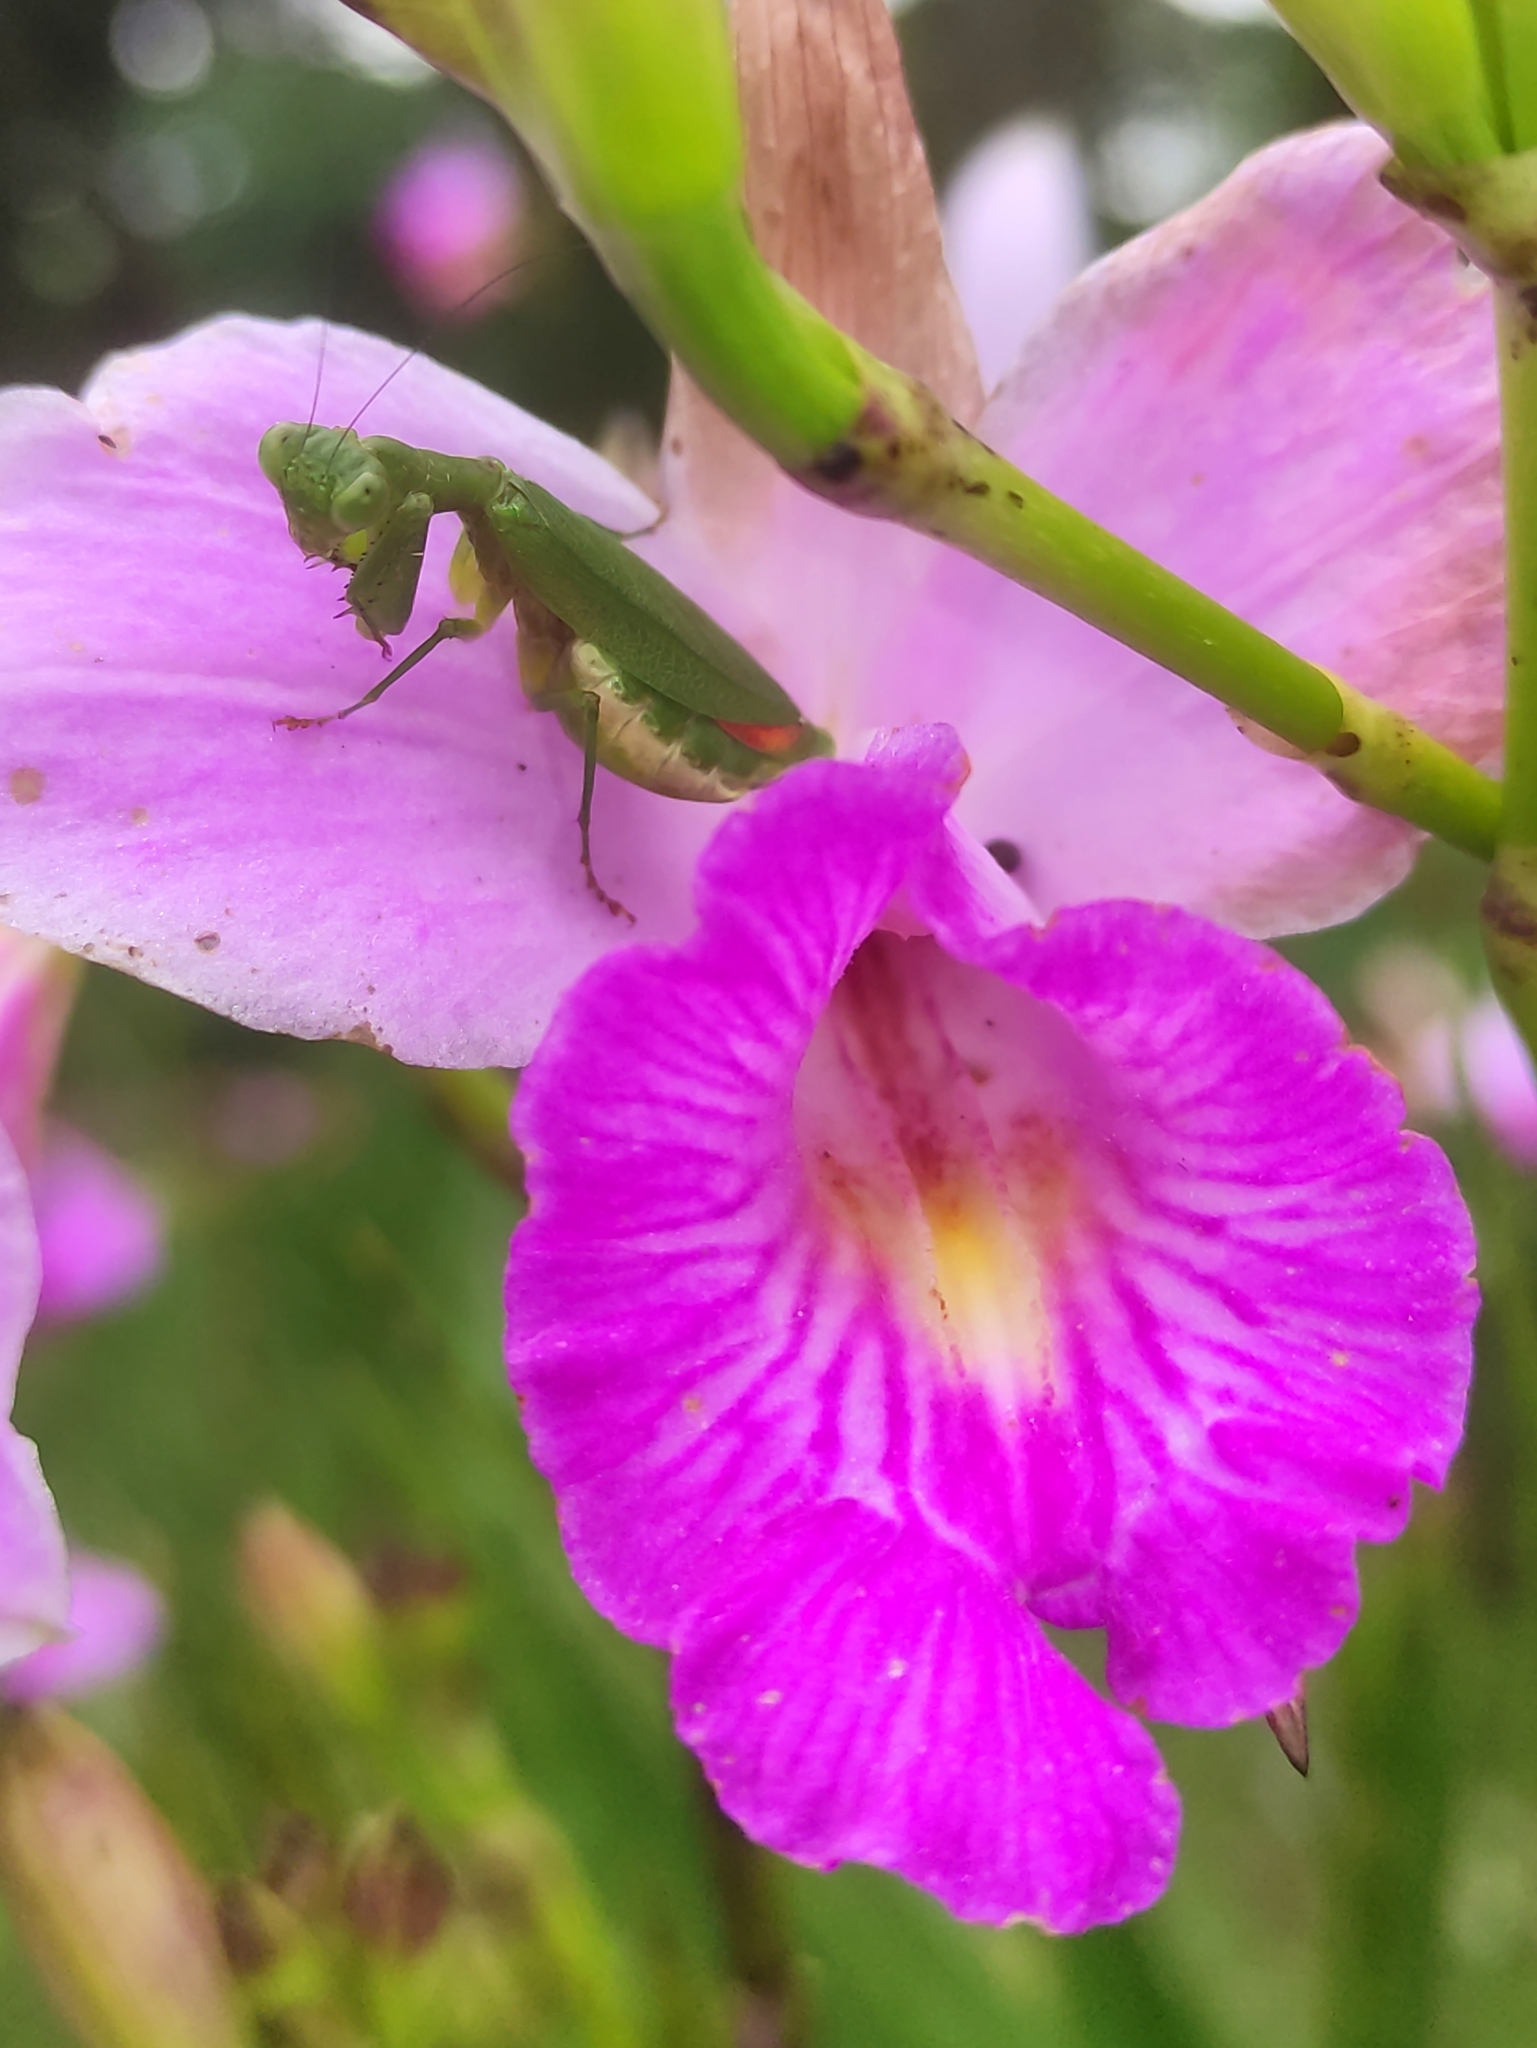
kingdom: Animalia
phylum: Arthropoda
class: Insecta
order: Mantodea
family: Acanthopidae
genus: Acontista
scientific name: Acontista concinna
